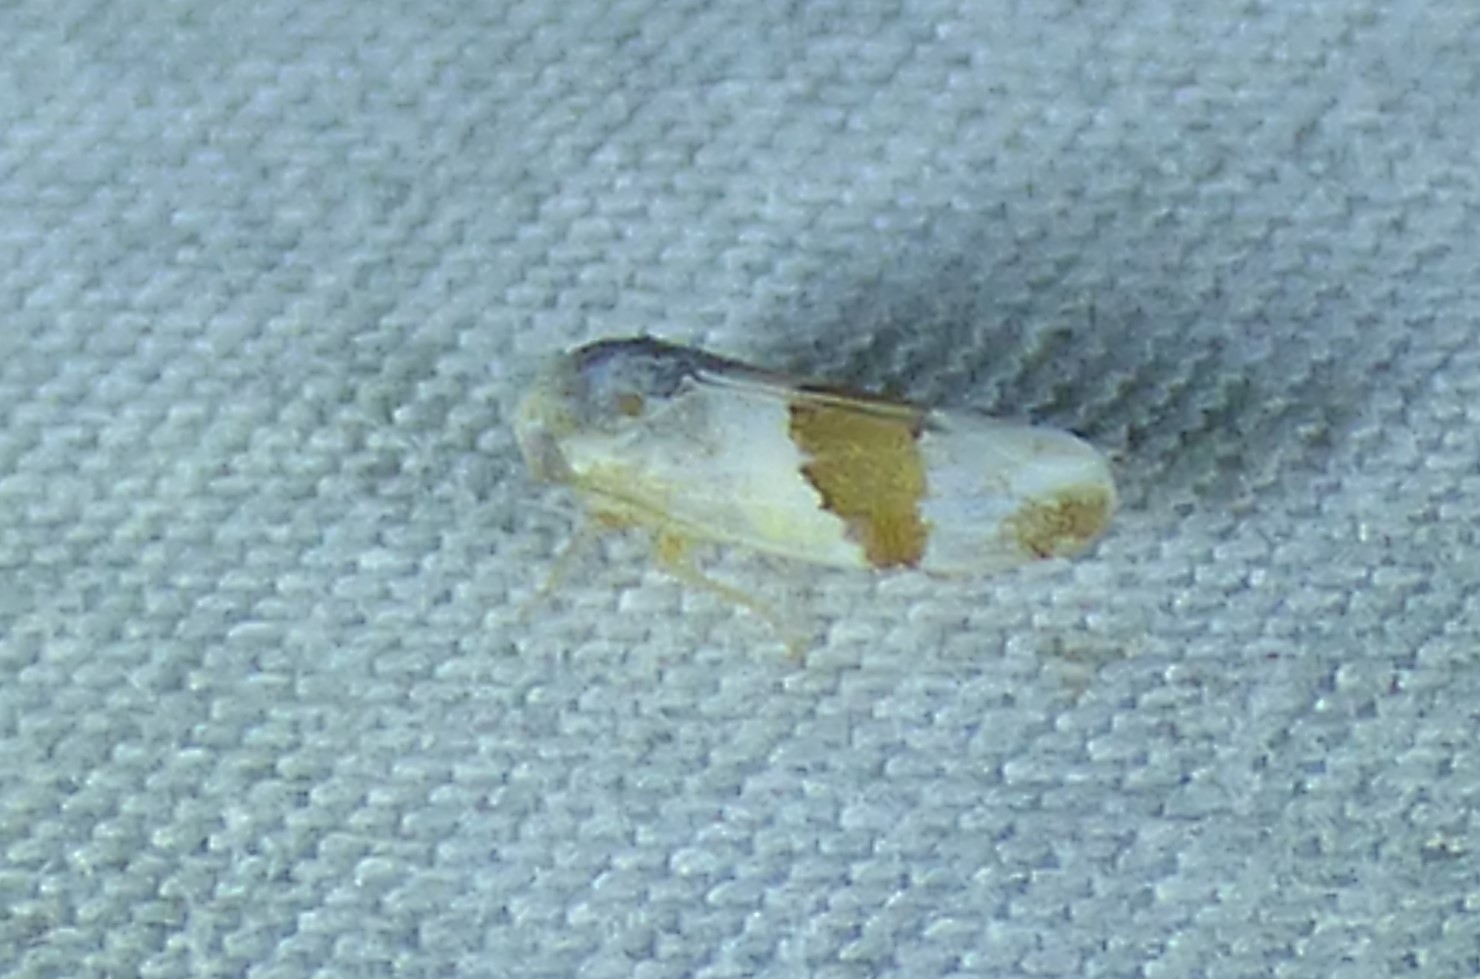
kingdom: Animalia
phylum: Arthropoda
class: Insecta
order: Hemiptera
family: Cicadellidae
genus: Norvellina
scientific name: Norvellina seminuda
